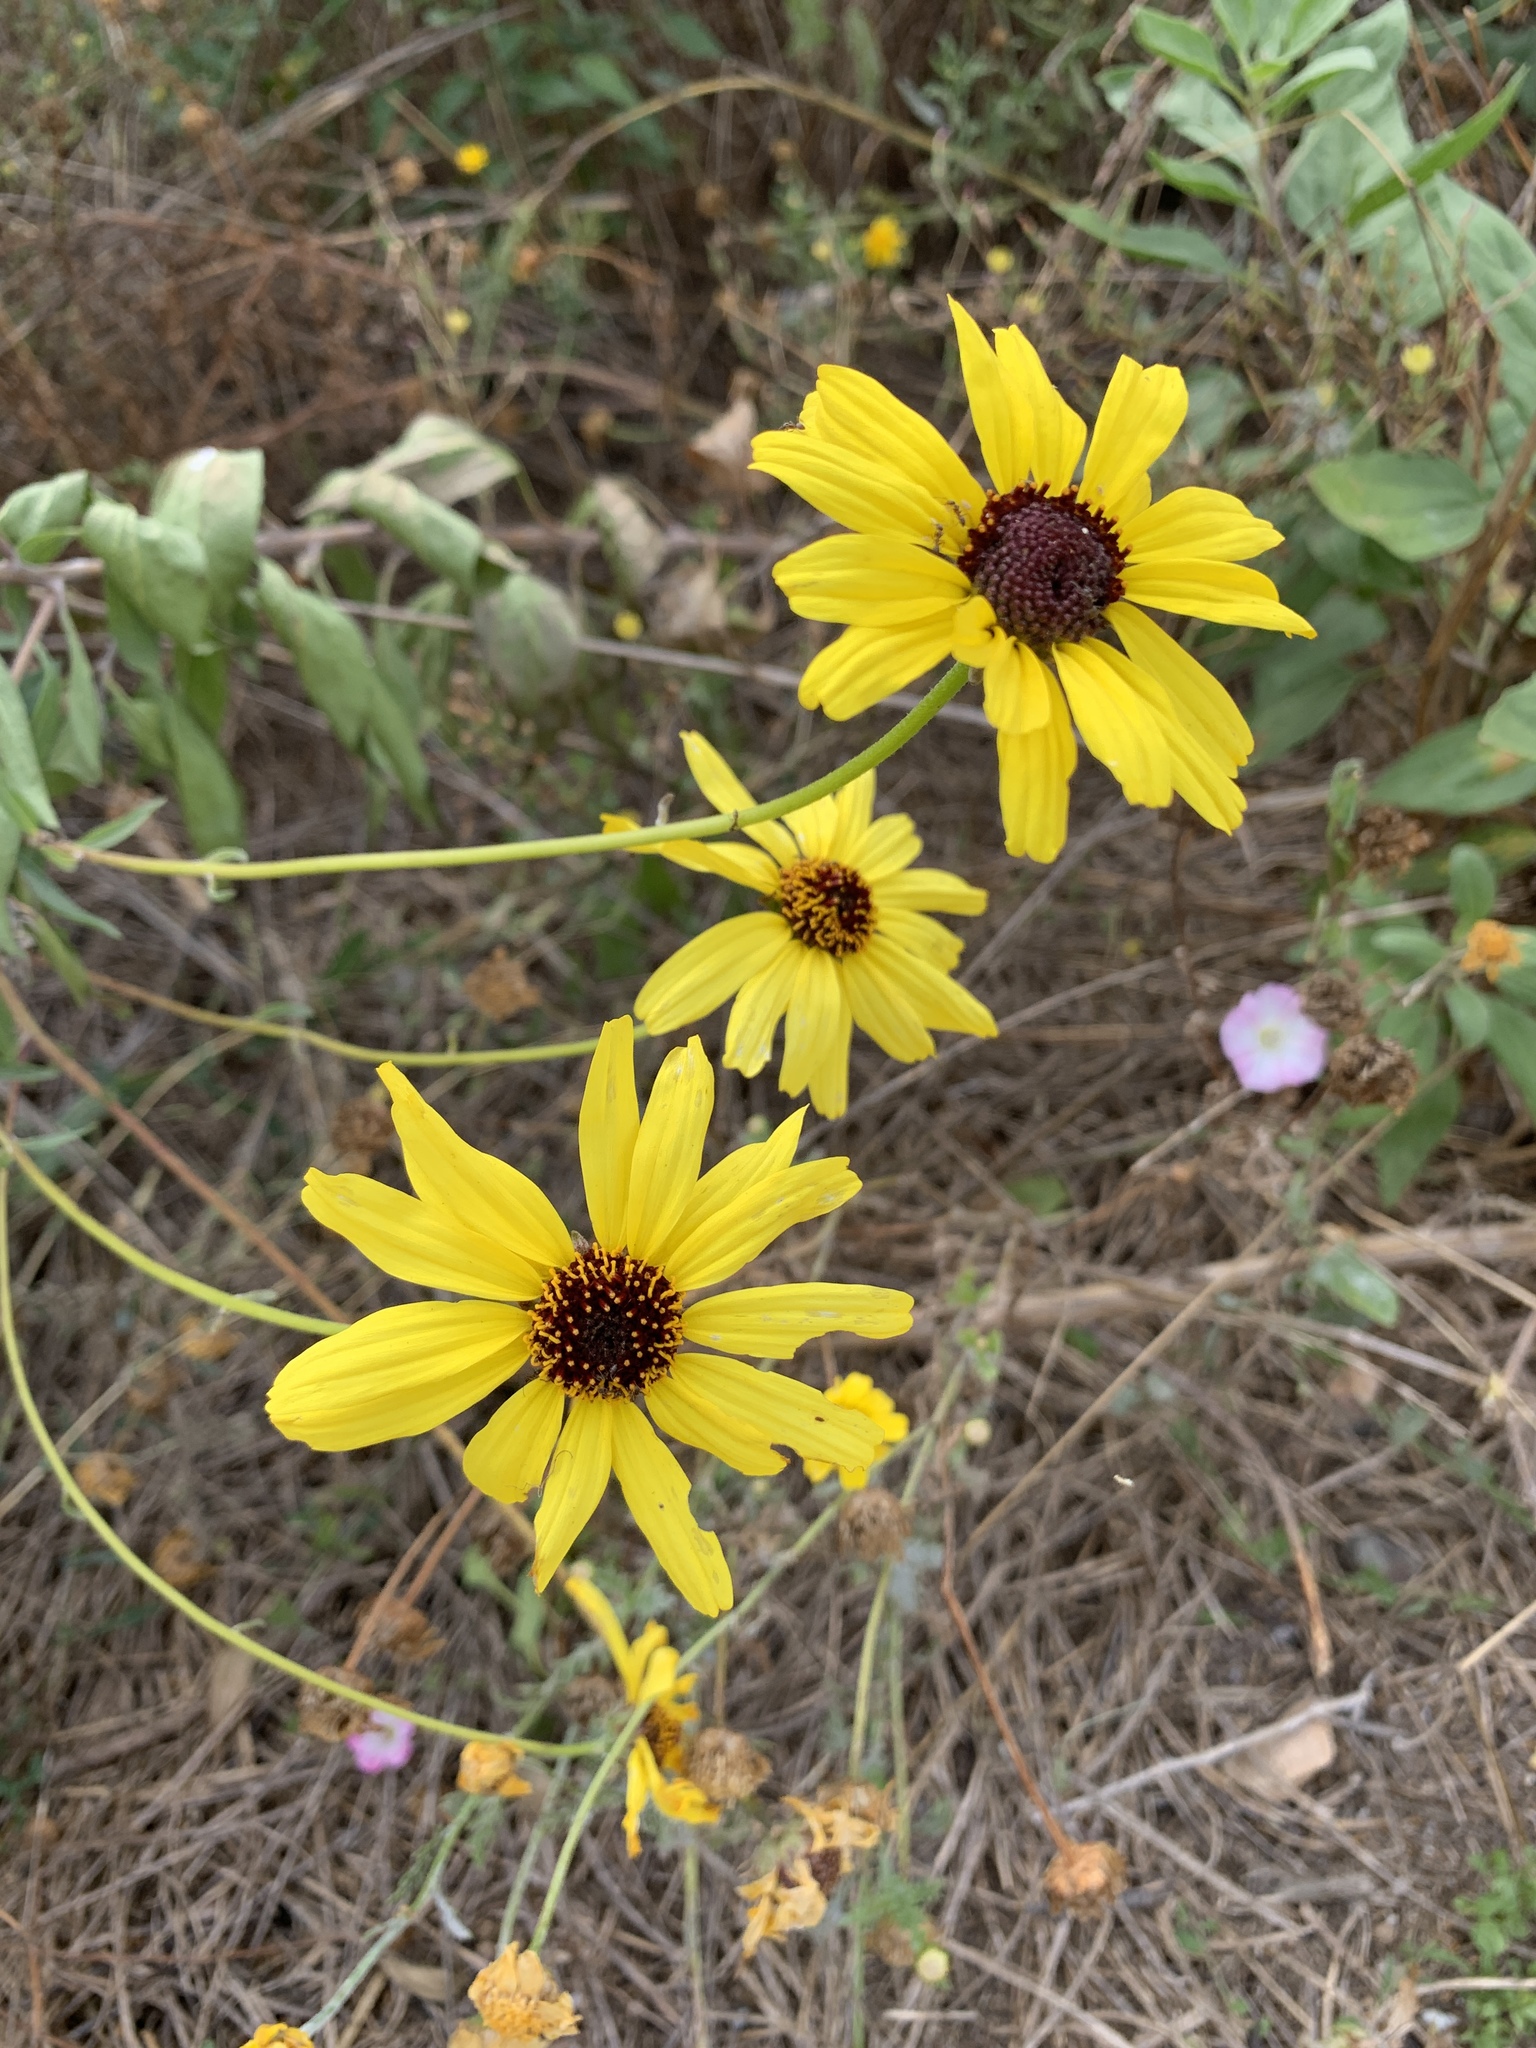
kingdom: Plantae
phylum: Tracheophyta
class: Magnoliopsida
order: Asterales
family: Asteraceae
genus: Encelia
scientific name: Encelia californica
